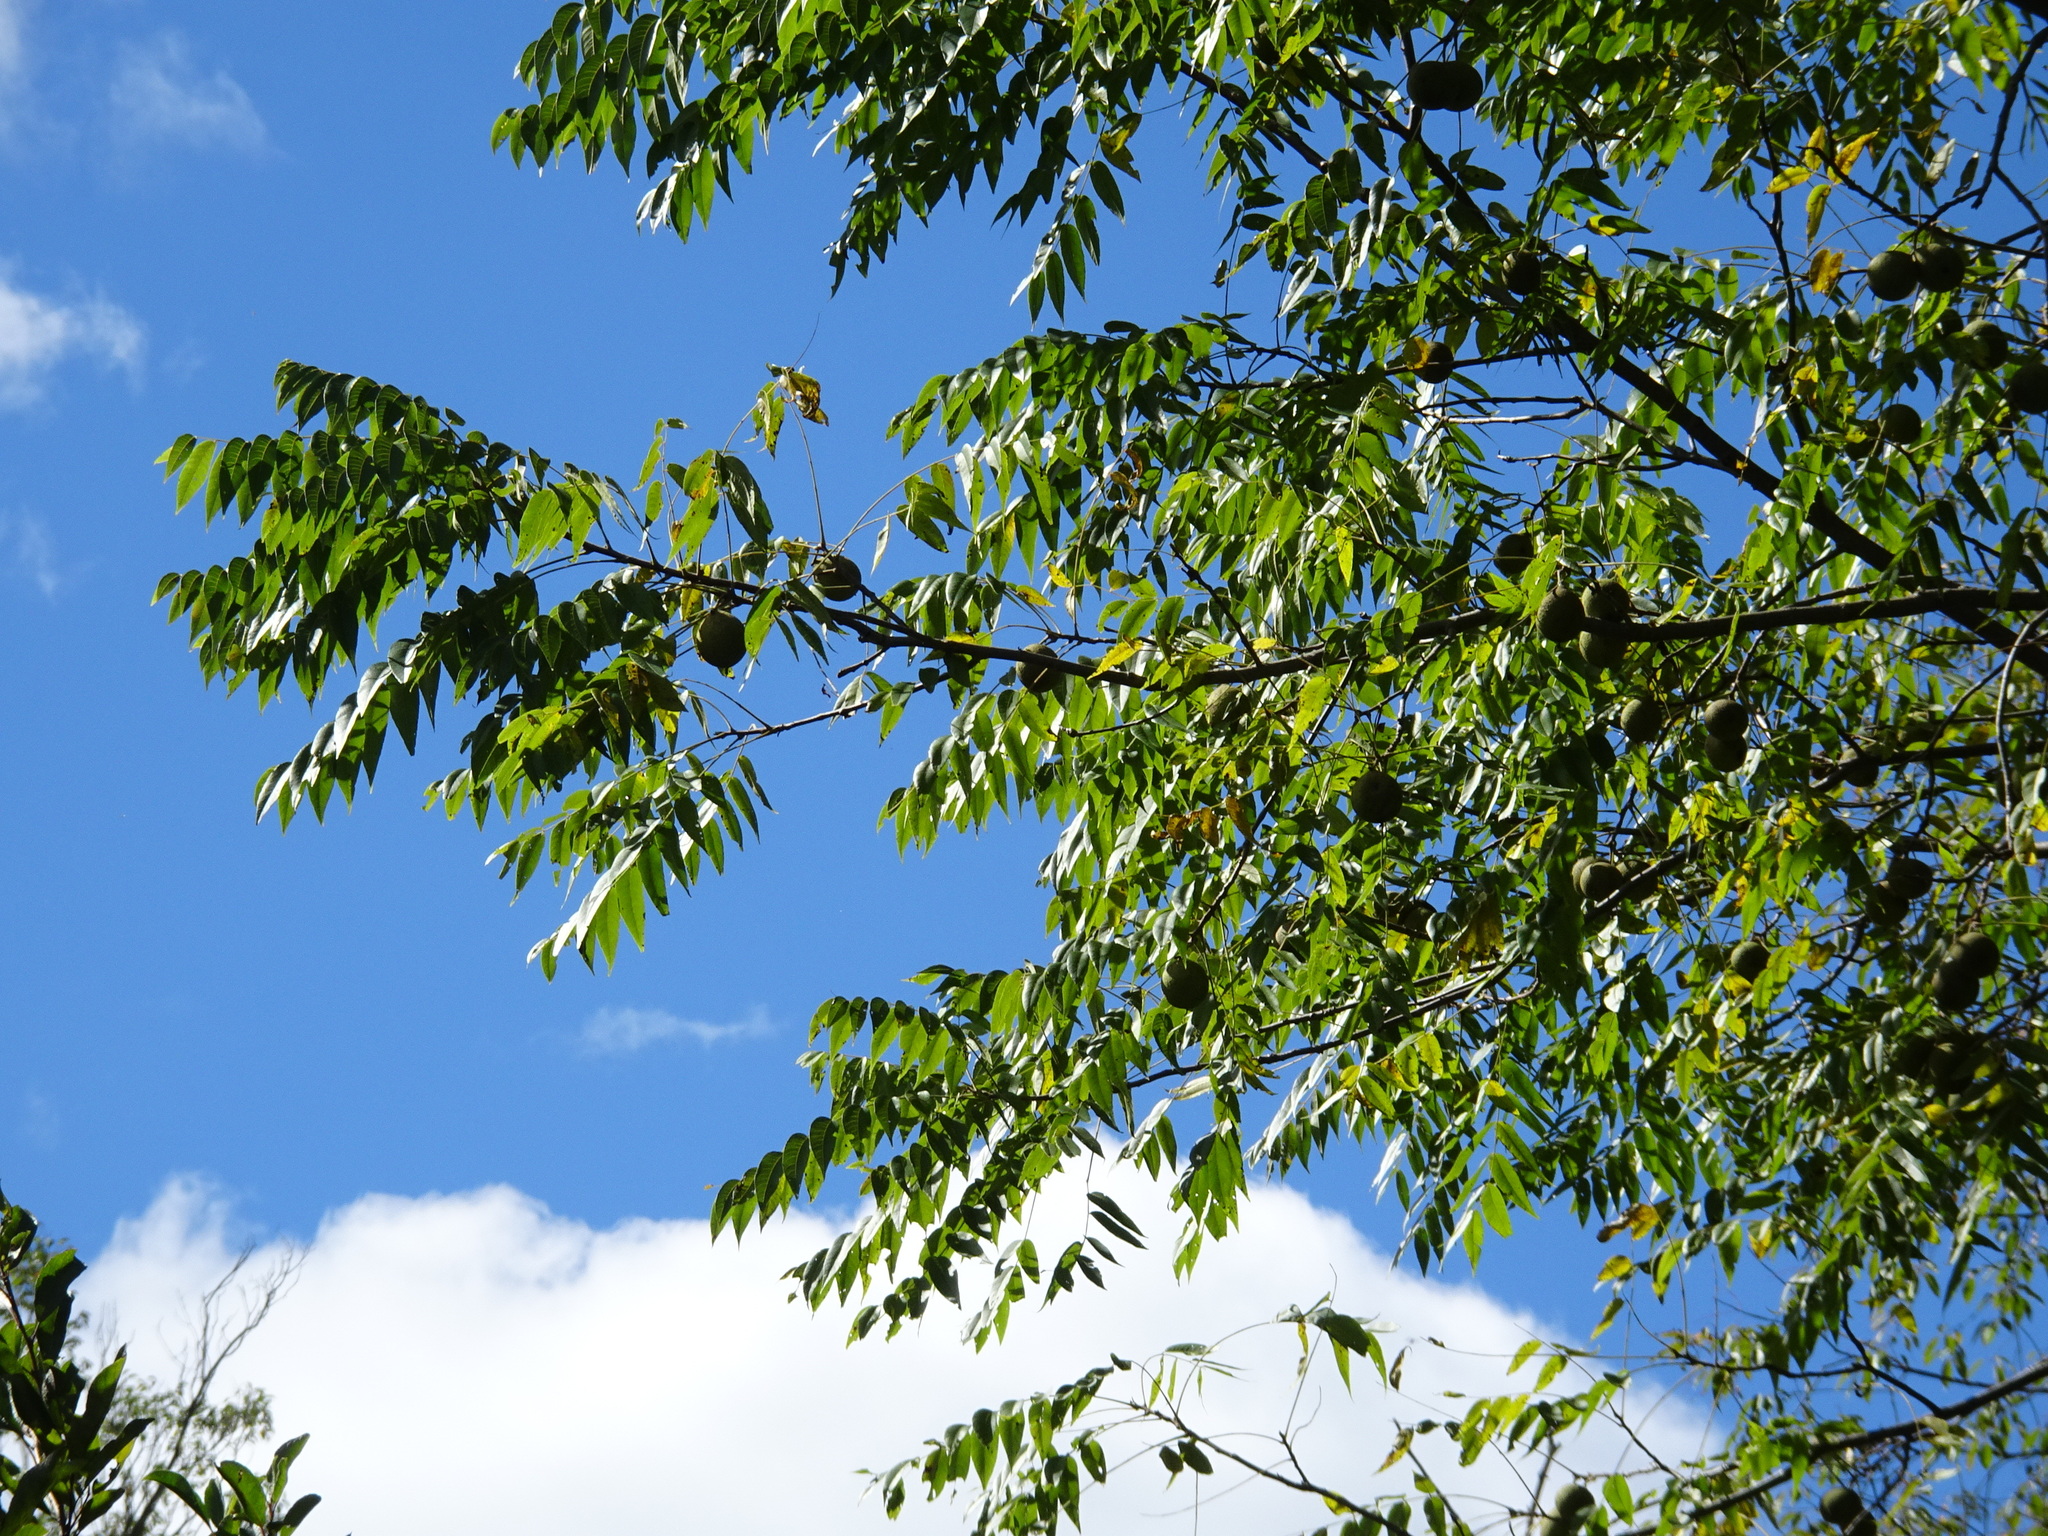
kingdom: Plantae
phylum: Tracheophyta
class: Magnoliopsida
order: Fagales
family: Juglandaceae
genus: Juglans
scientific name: Juglans nigra
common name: Black walnut
